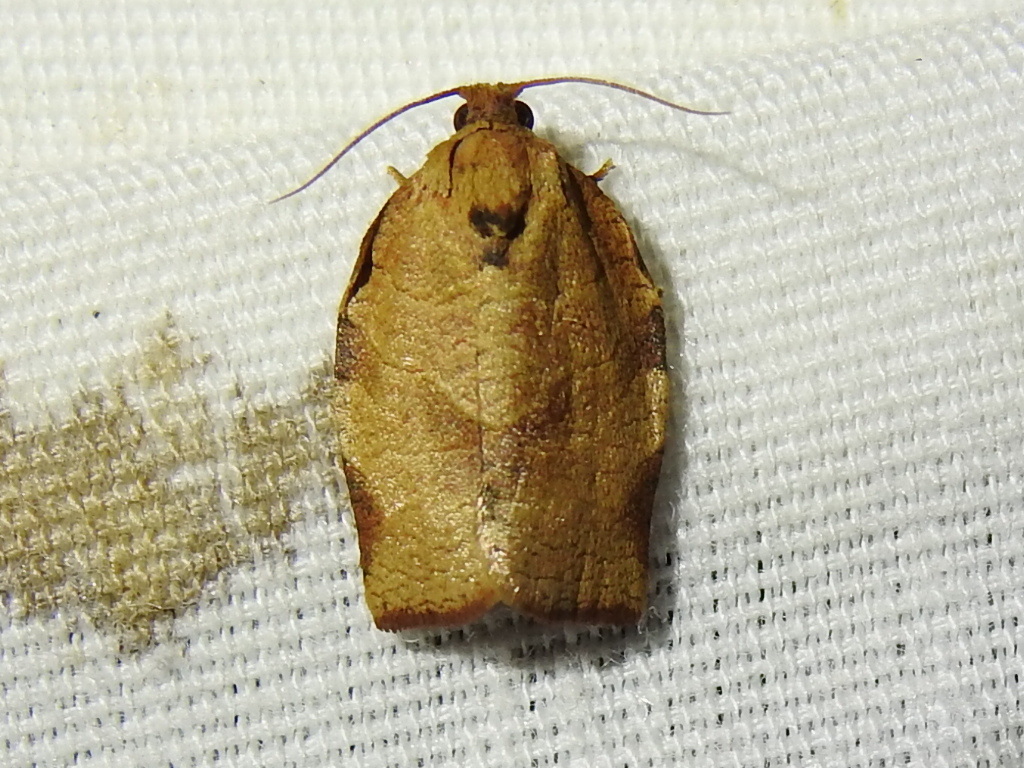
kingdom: Animalia
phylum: Arthropoda
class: Insecta
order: Lepidoptera
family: Tortricidae
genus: Choristoneura
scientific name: Choristoneura rosaceana
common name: Oblique-banded leafroller moth
